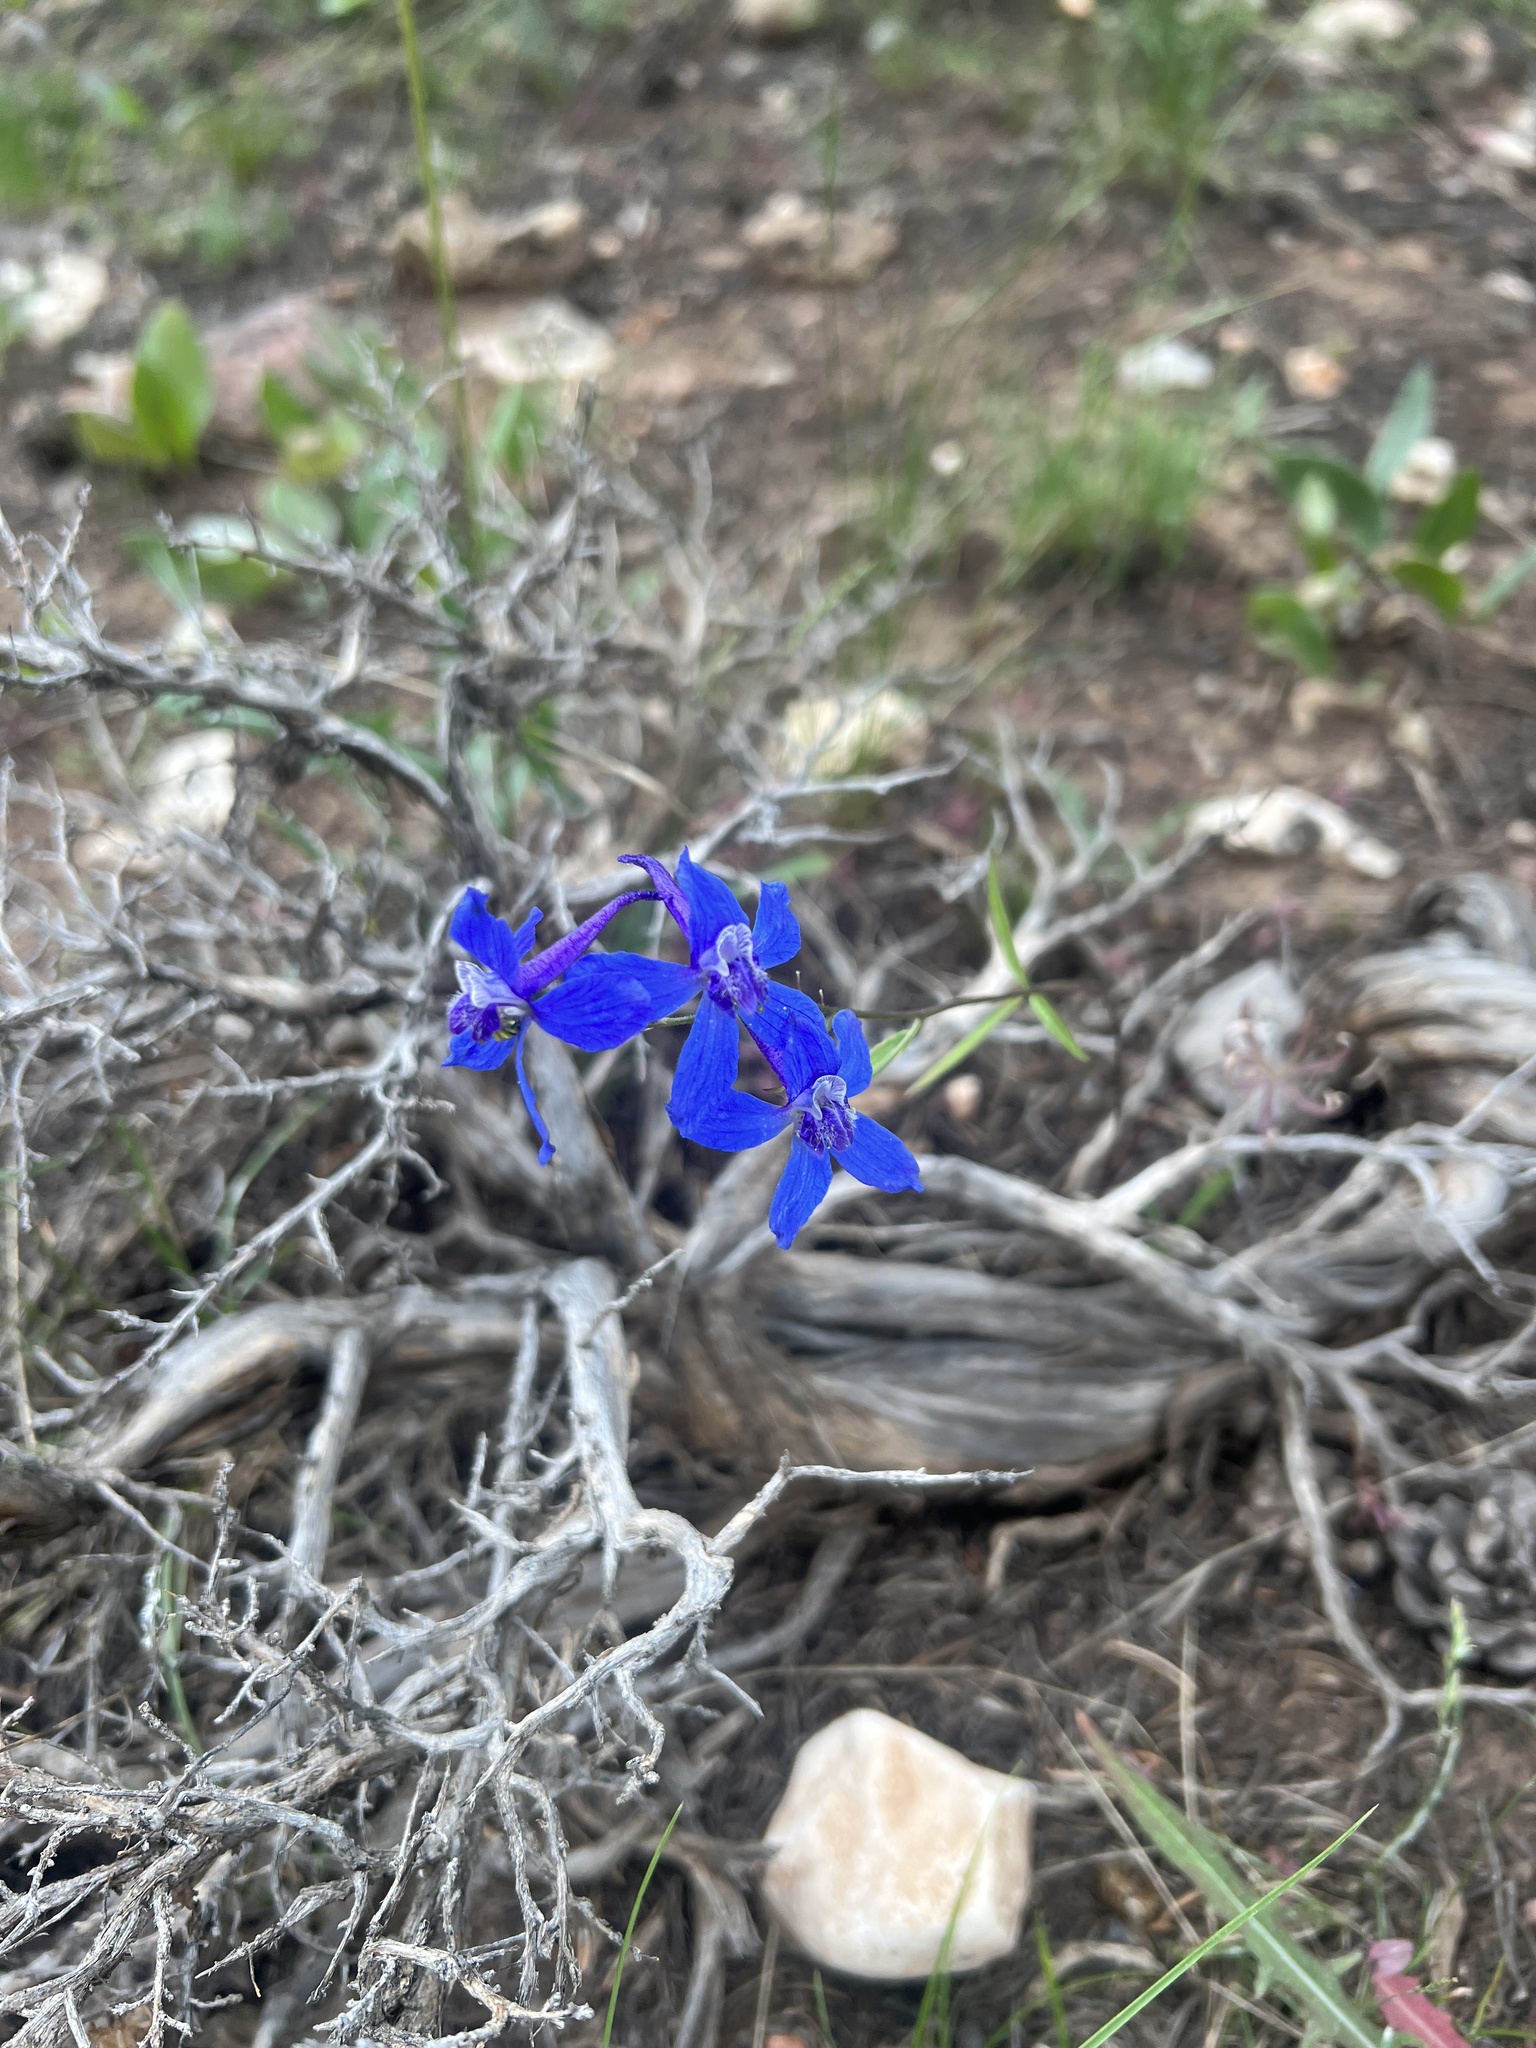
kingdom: Plantae
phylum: Tracheophyta
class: Magnoliopsida
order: Ranunculales
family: Ranunculaceae
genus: Delphinium
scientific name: Delphinium nuttallianum
